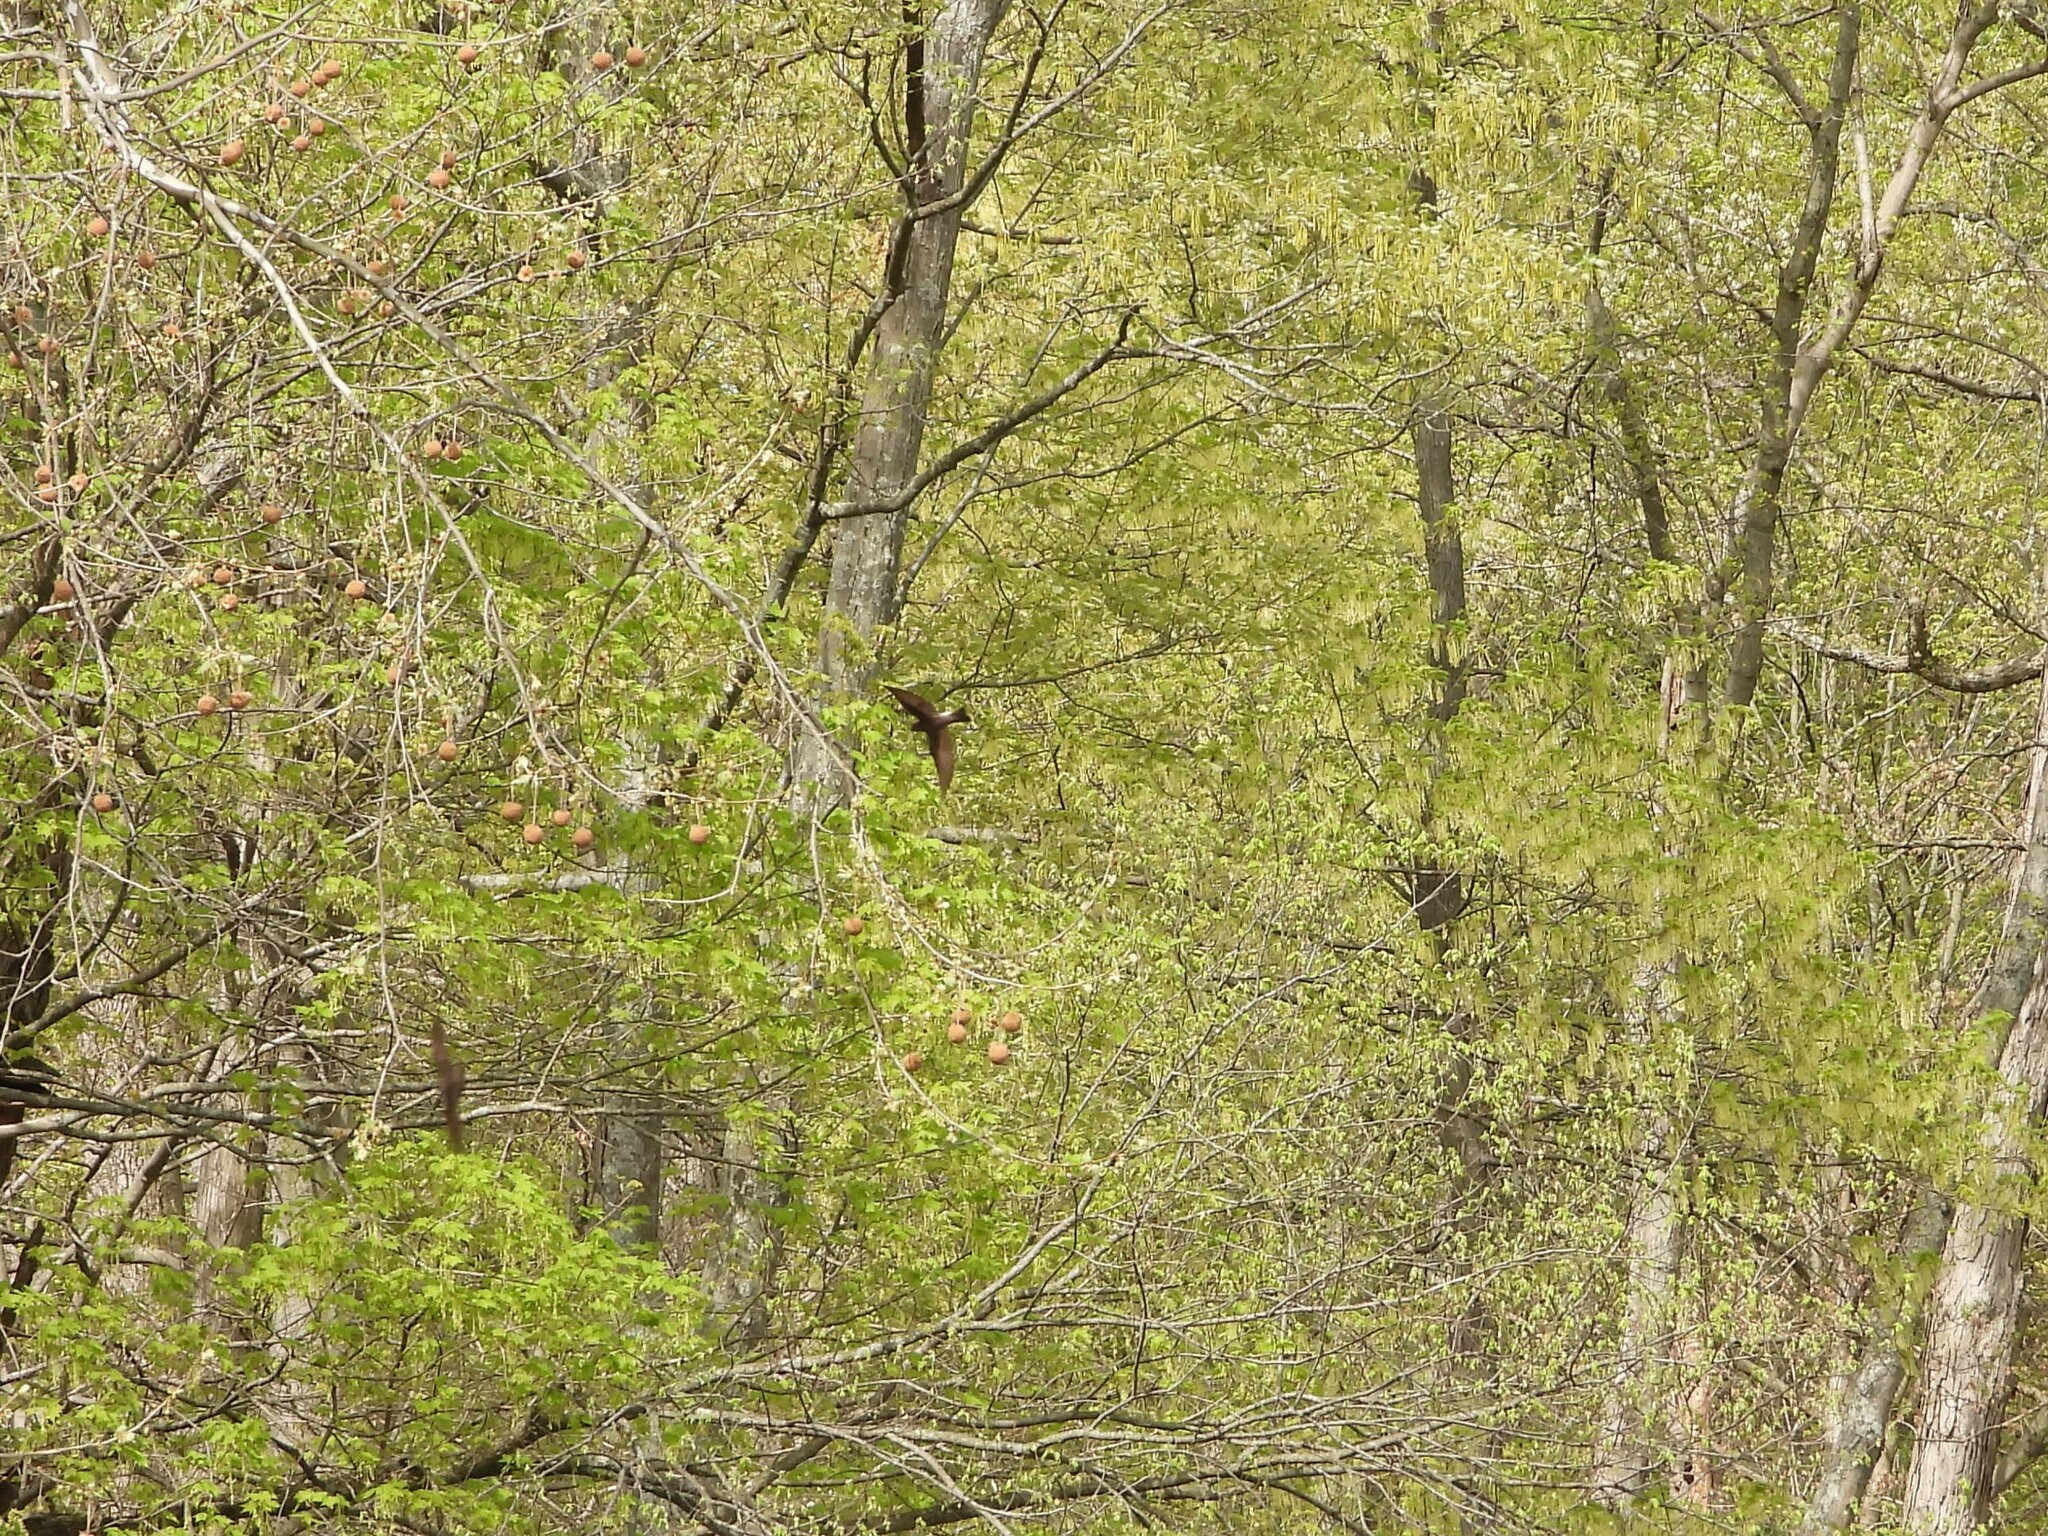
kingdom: Animalia
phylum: Chordata
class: Aves
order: Passeriformes
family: Hirundinidae
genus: Stelgidopteryx
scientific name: Stelgidopteryx serripennis
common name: Northern rough-winged swallow
